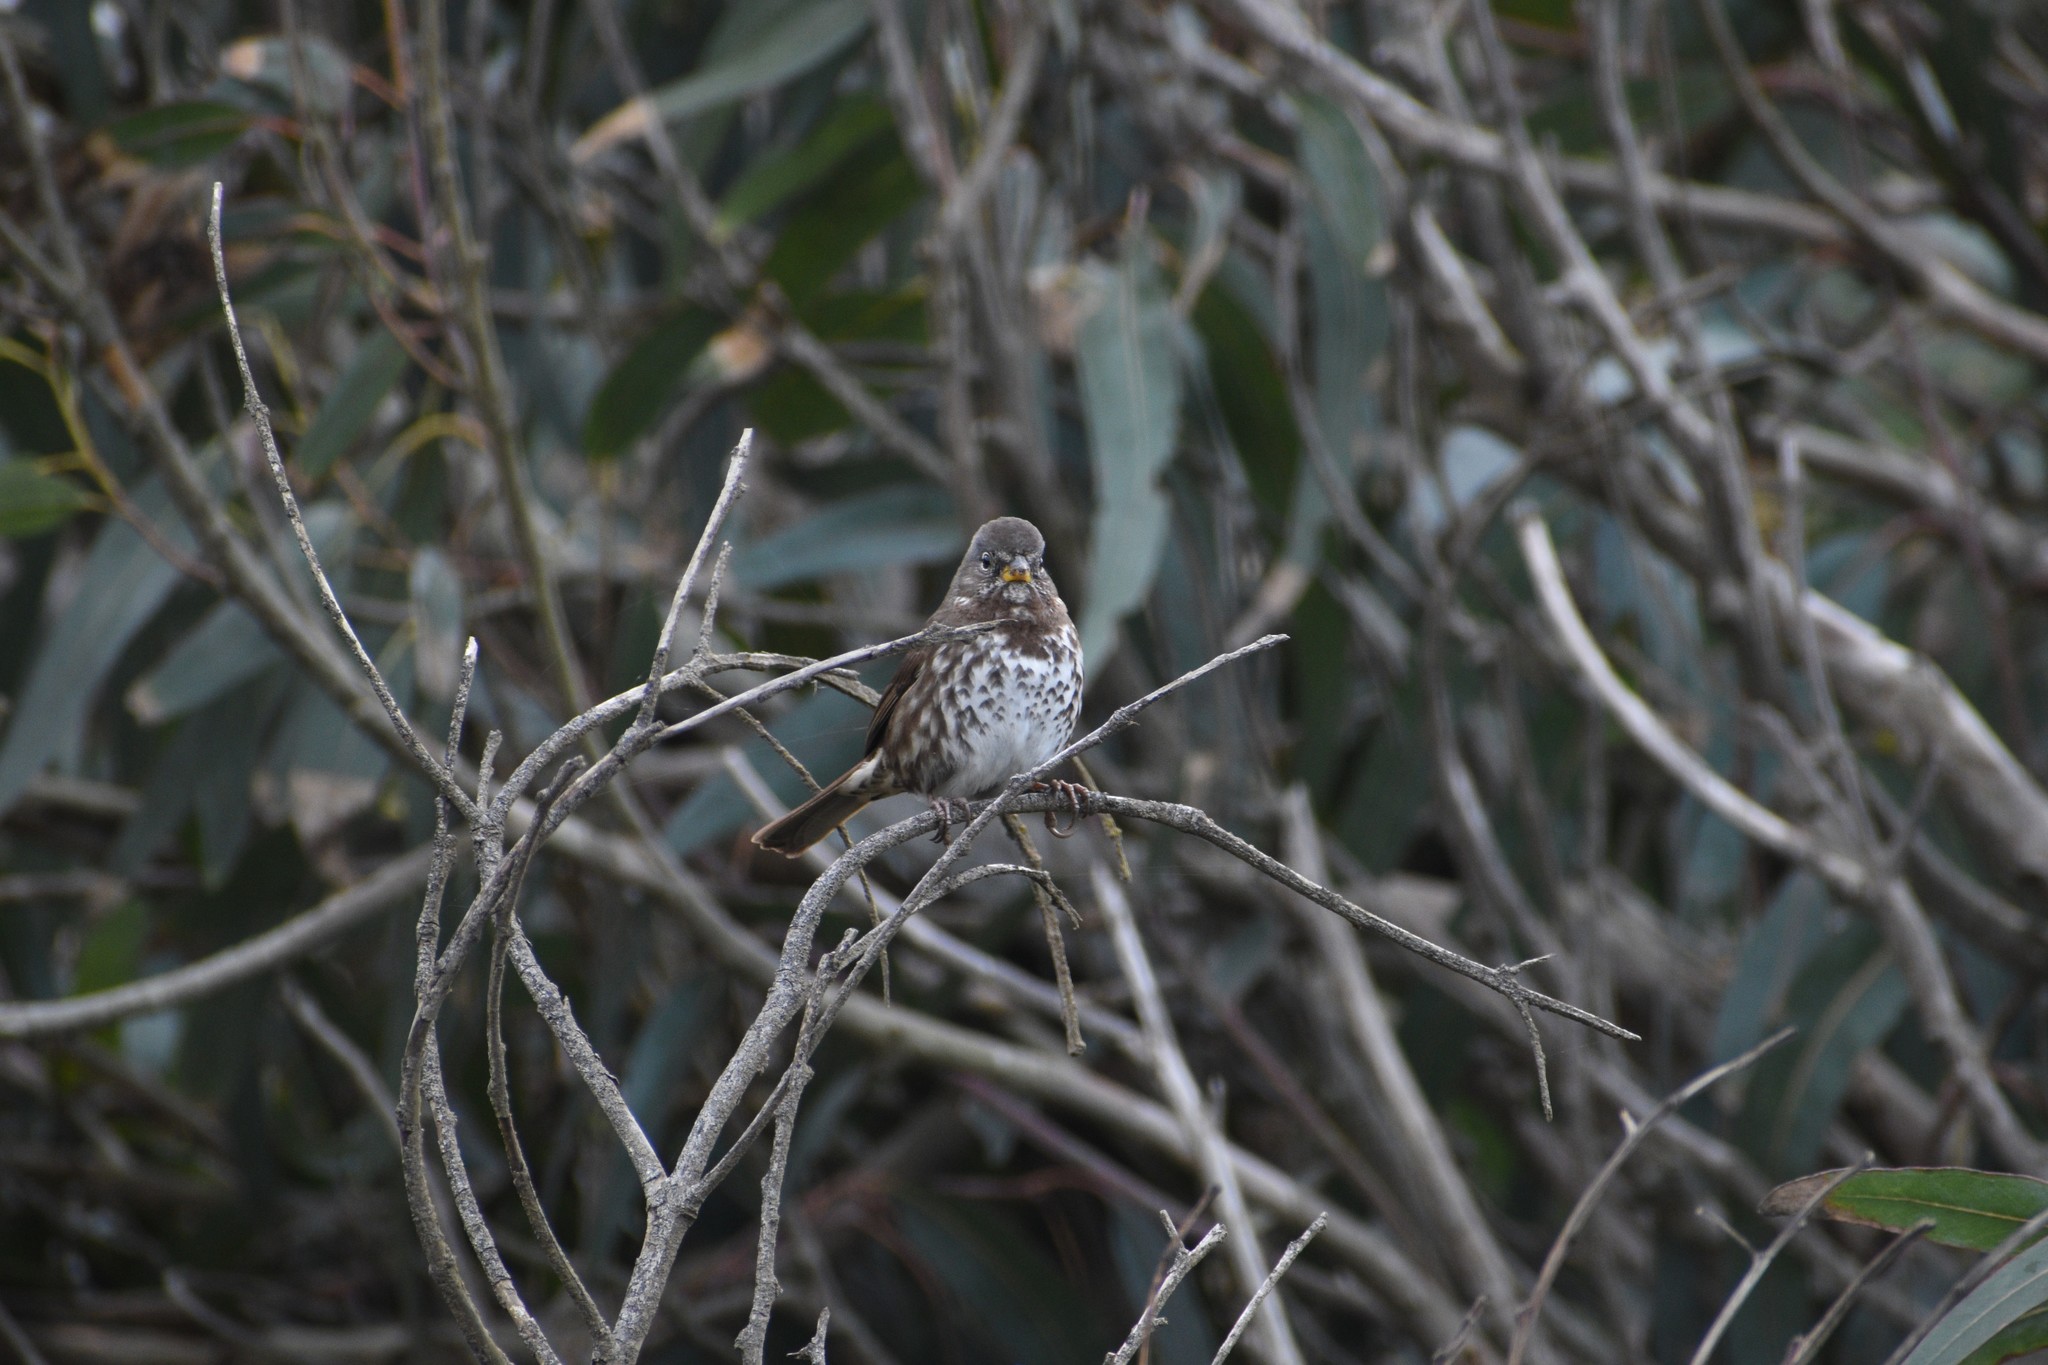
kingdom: Animalia
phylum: Chordata
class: Aves
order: Passeriformes
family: Passerellidae
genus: Passerella
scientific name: Passerella iliaca
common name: Fox sparrow
